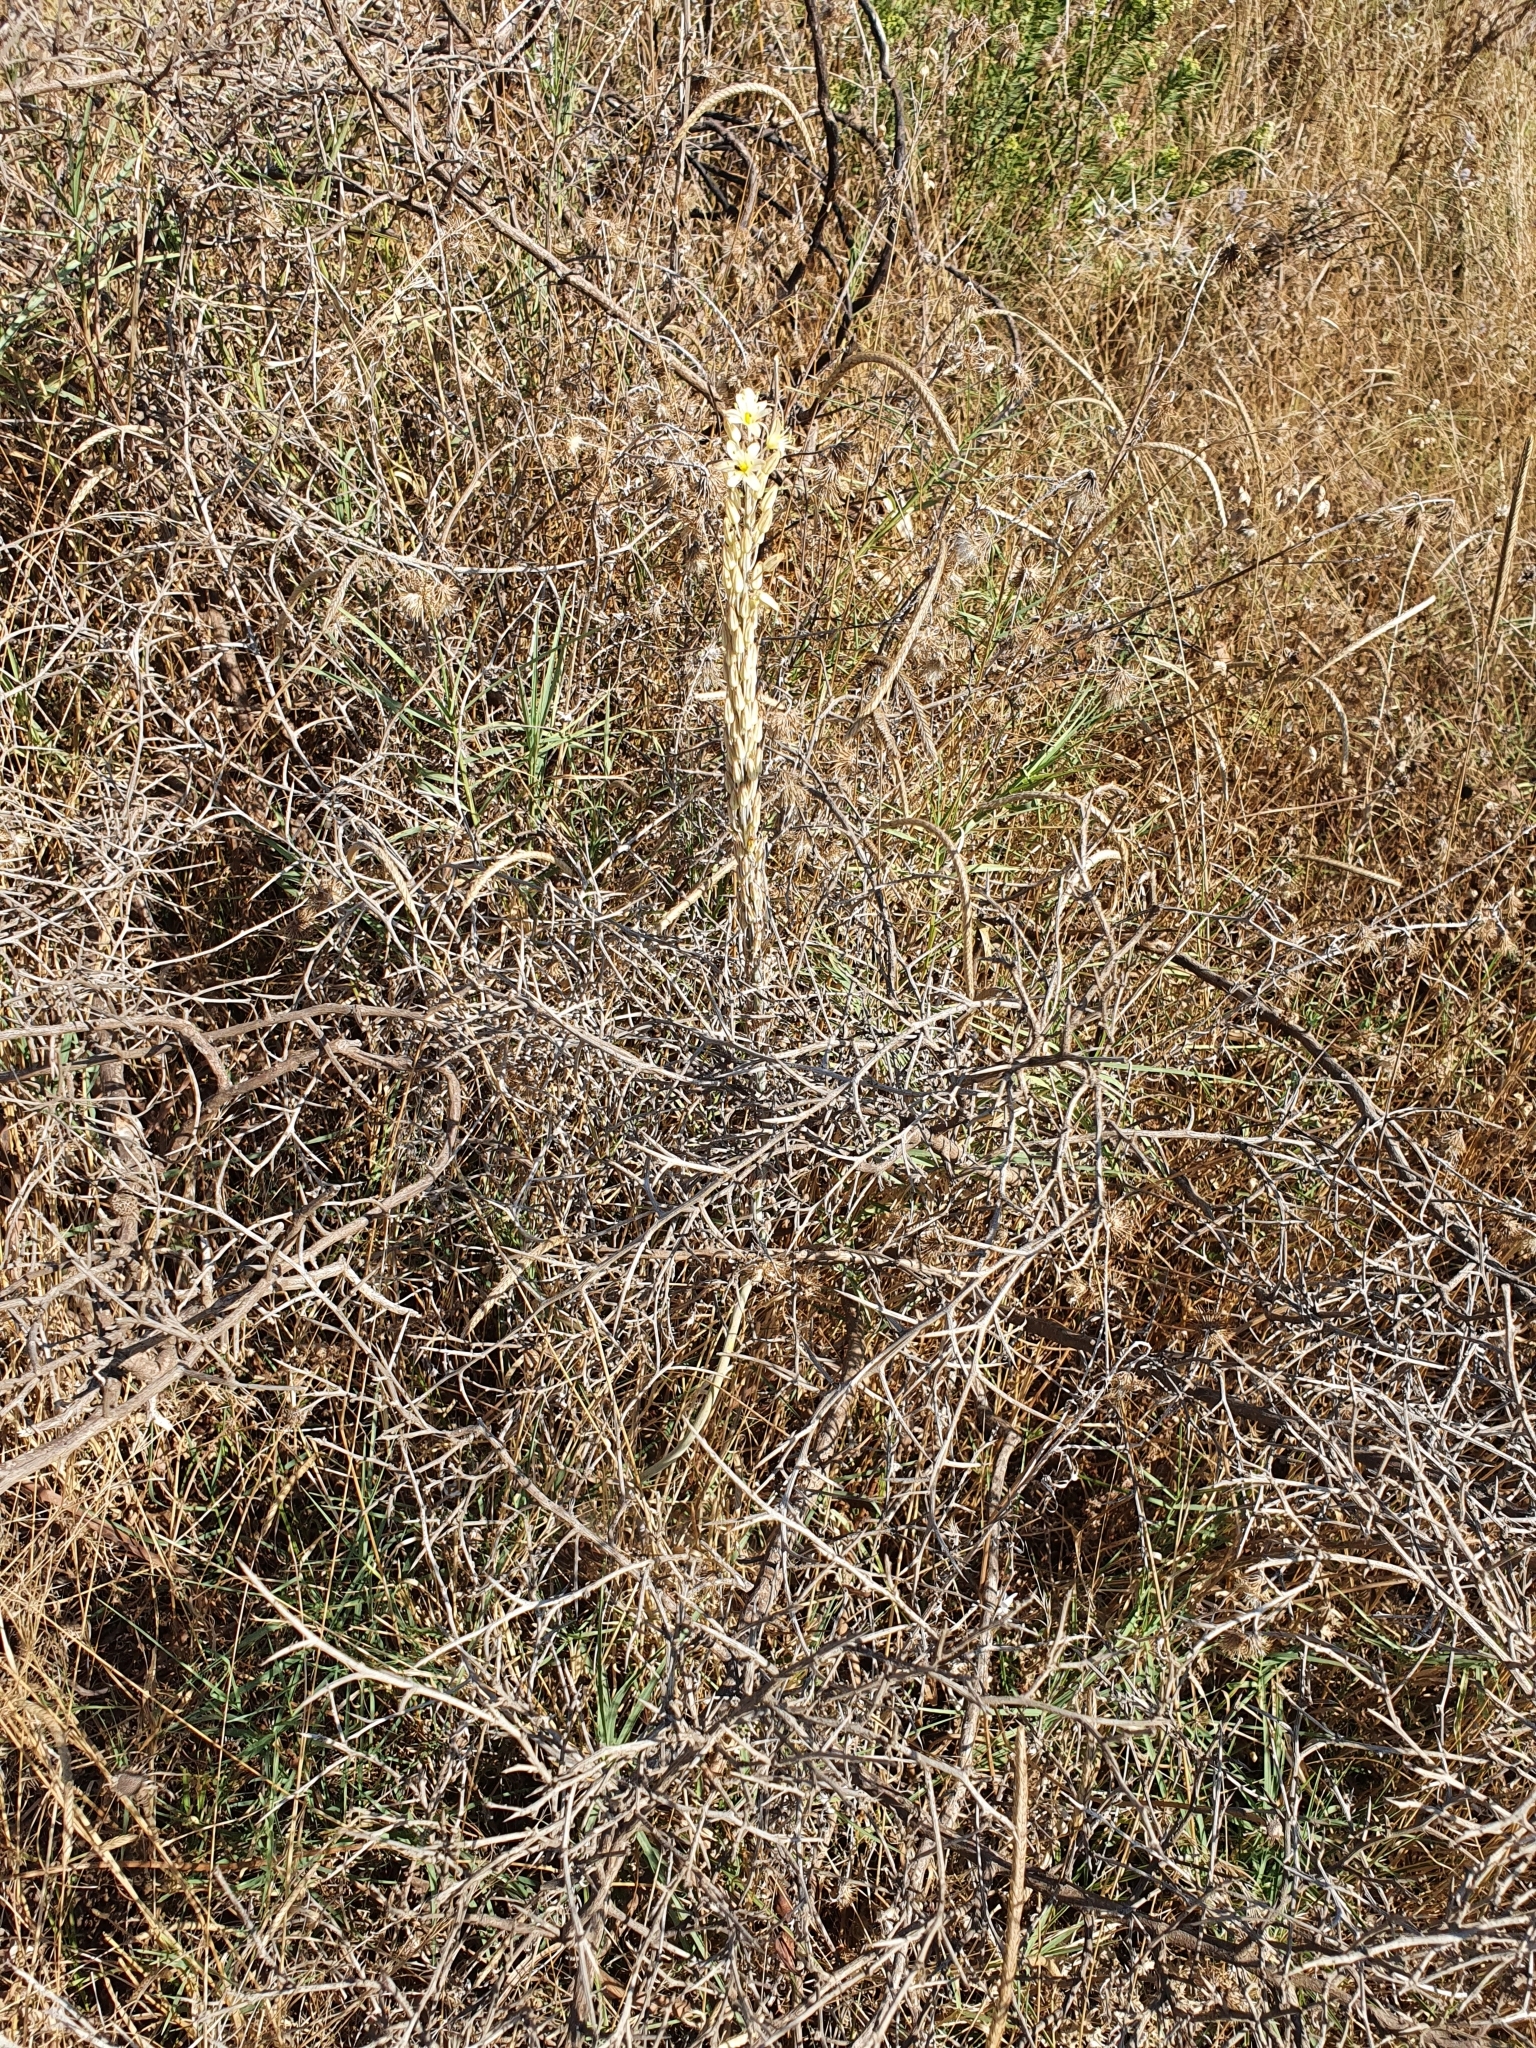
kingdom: Plantae
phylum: Tracheophyta
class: Liliopsida
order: Asparagales
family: Asparagaceae
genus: Drimia
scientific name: Drimia anthericoides
